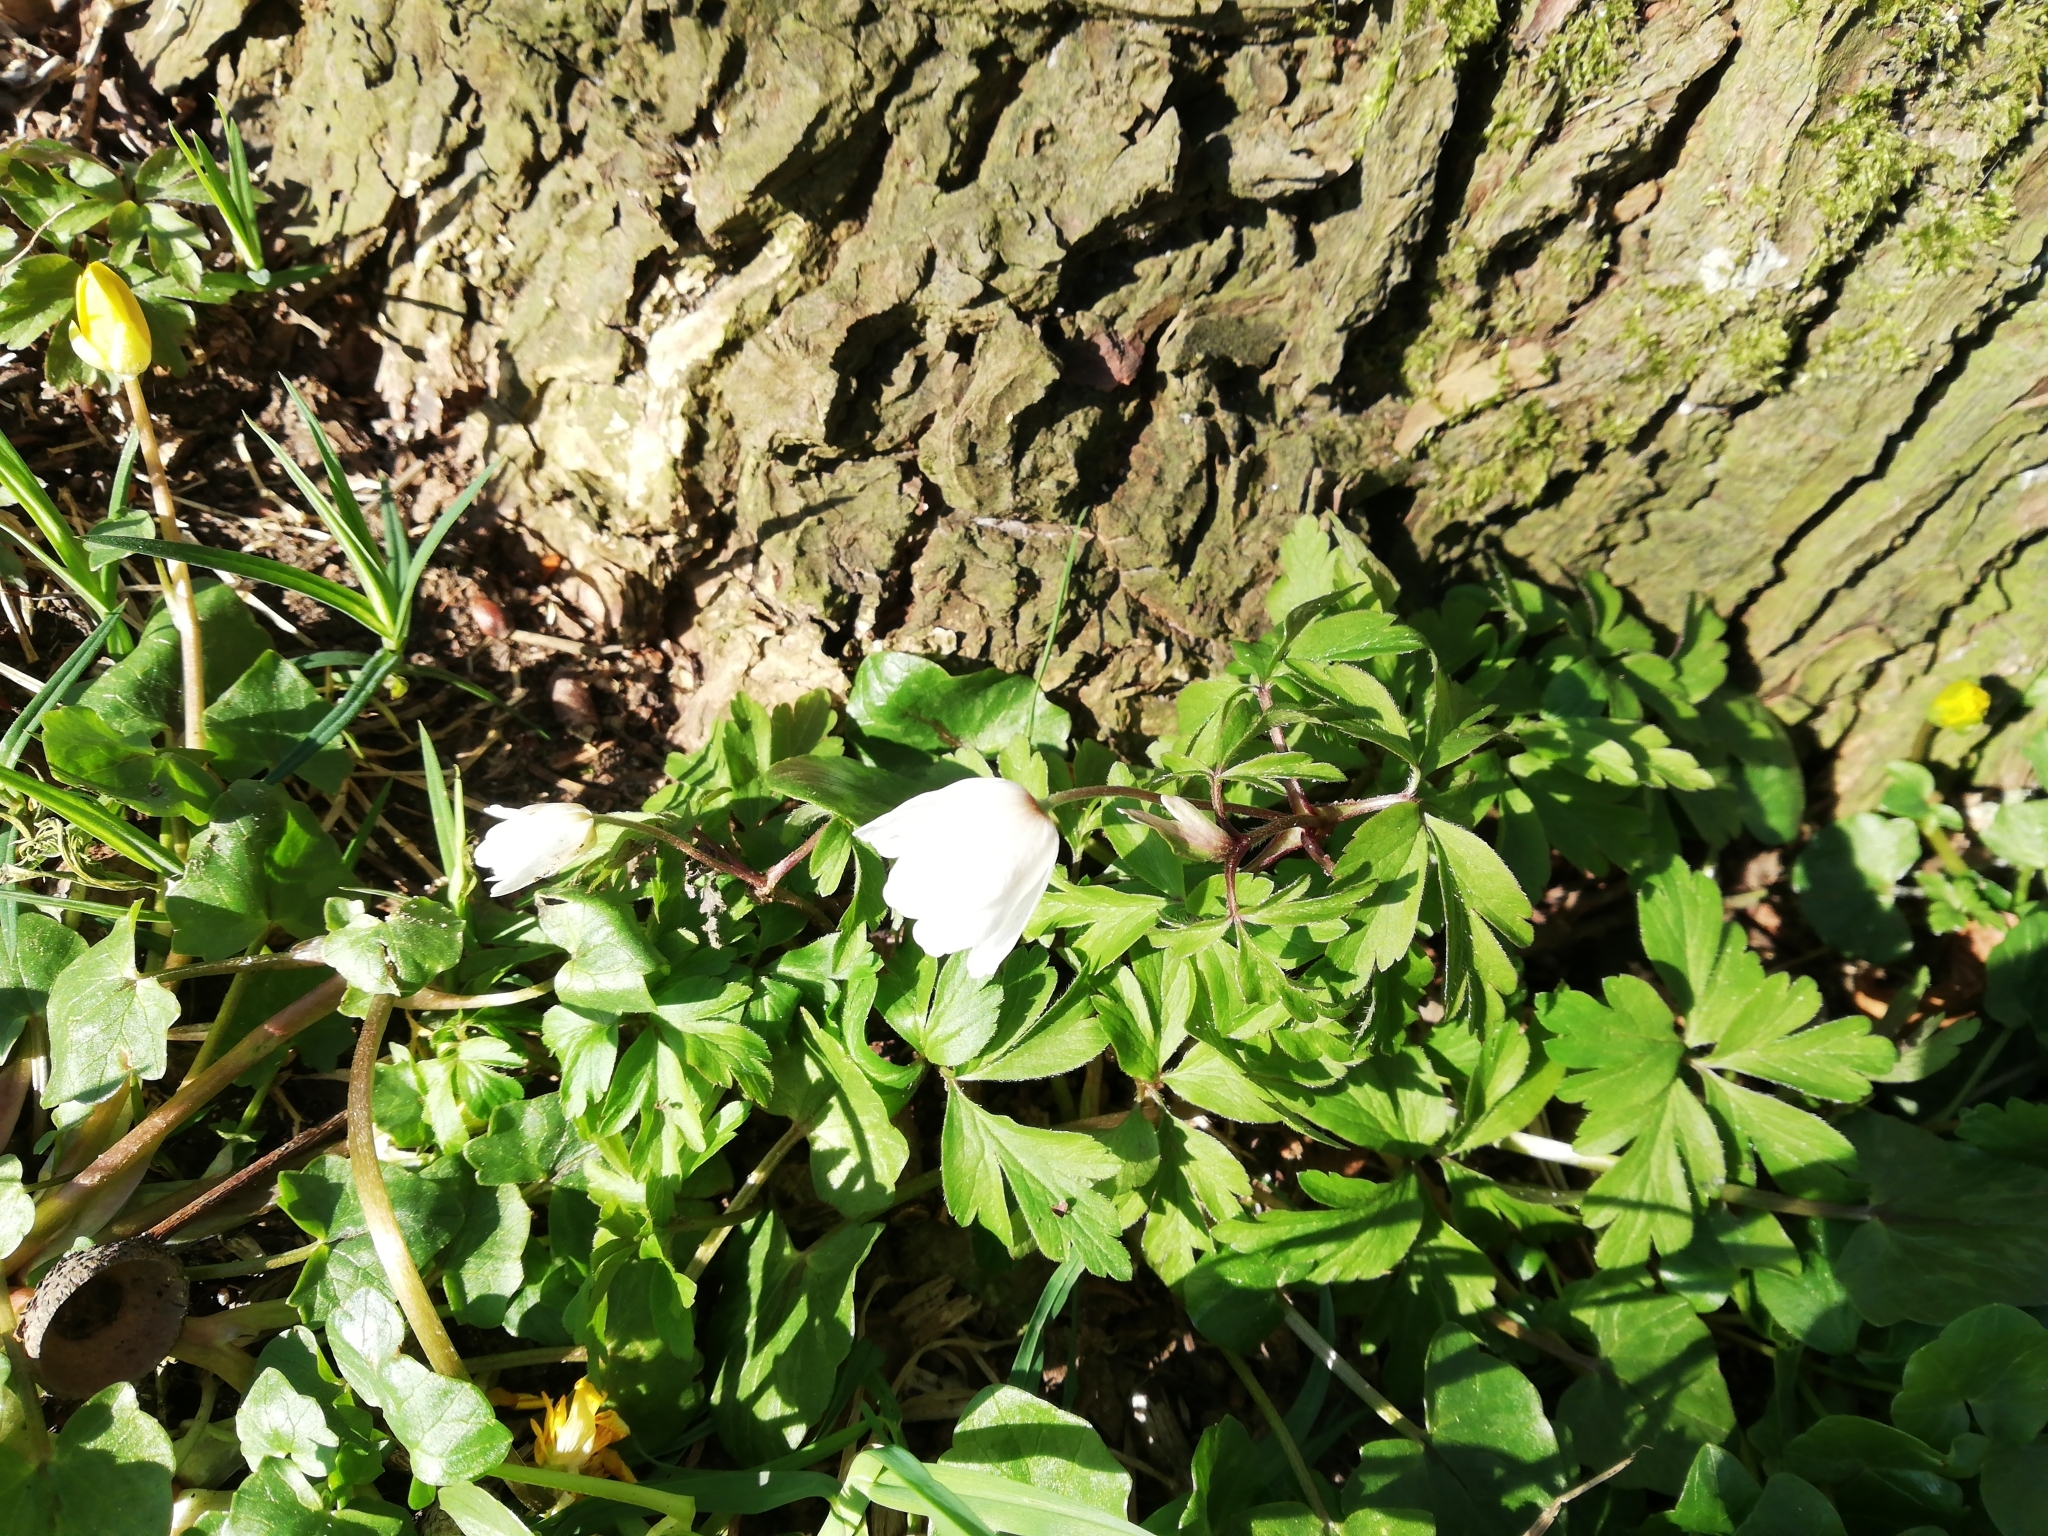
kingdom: Plantae
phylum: Tracheophyta
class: Magnoliopsida
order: Ranunculales
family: Ranunculaceae
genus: Anemone
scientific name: Anemone nemorosa
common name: Wood anemone
